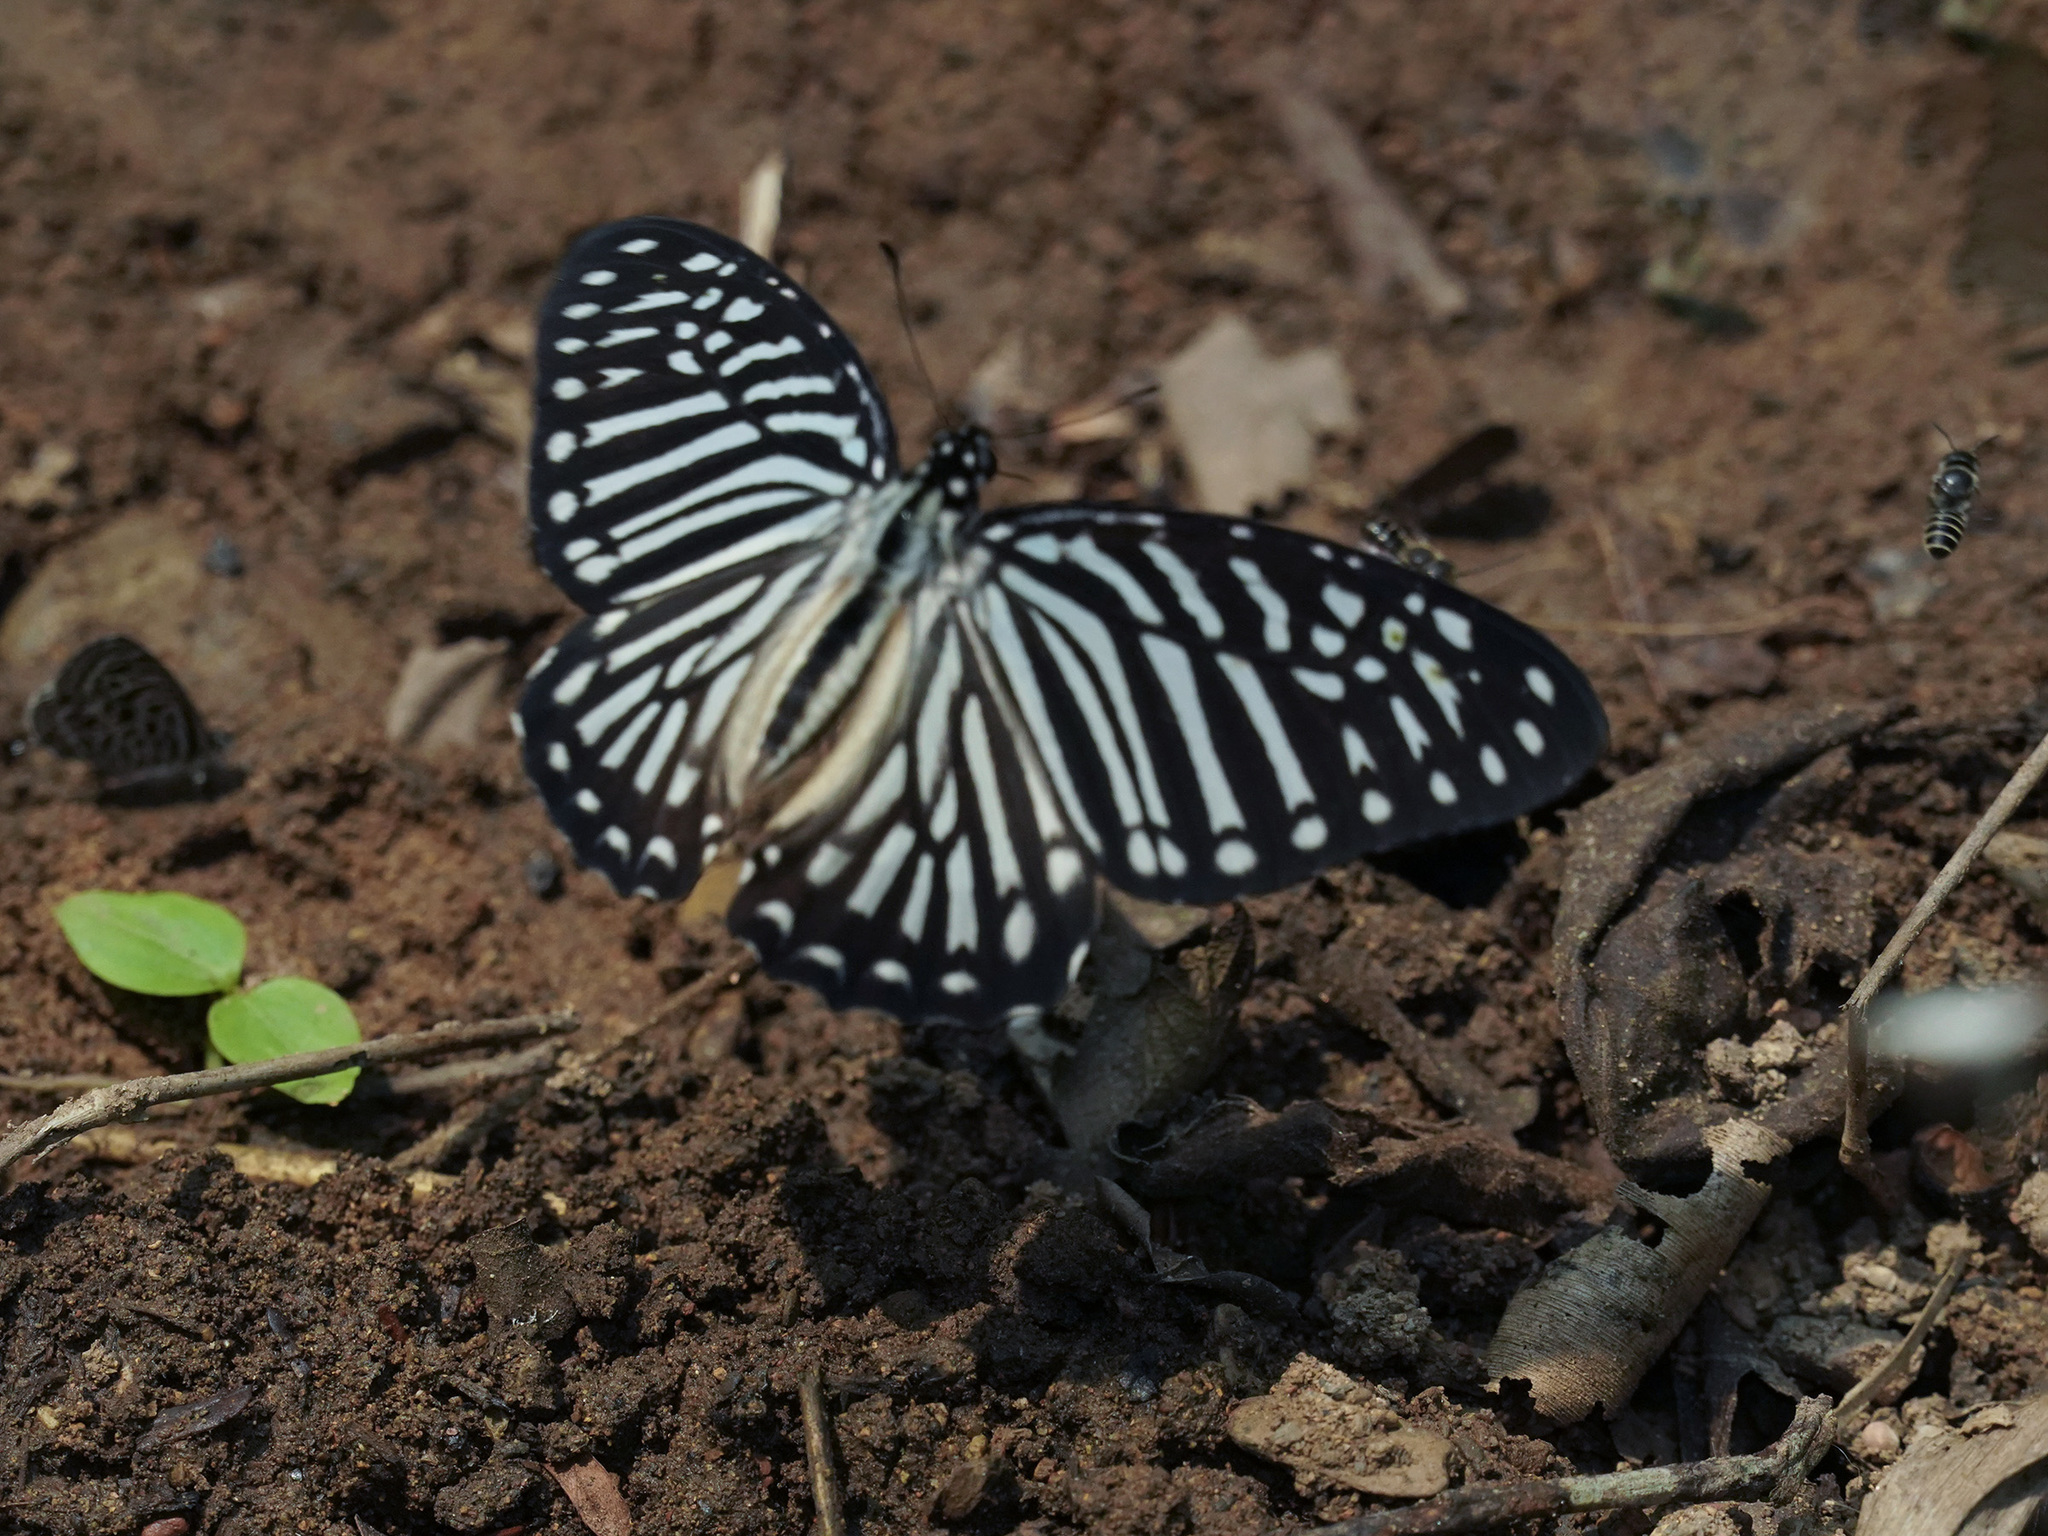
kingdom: Animalia
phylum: Arthropoda
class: Insecta
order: Lepidoptera
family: Papilionidae
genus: Graphium
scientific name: Graphium macareus
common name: Lesser zebra
